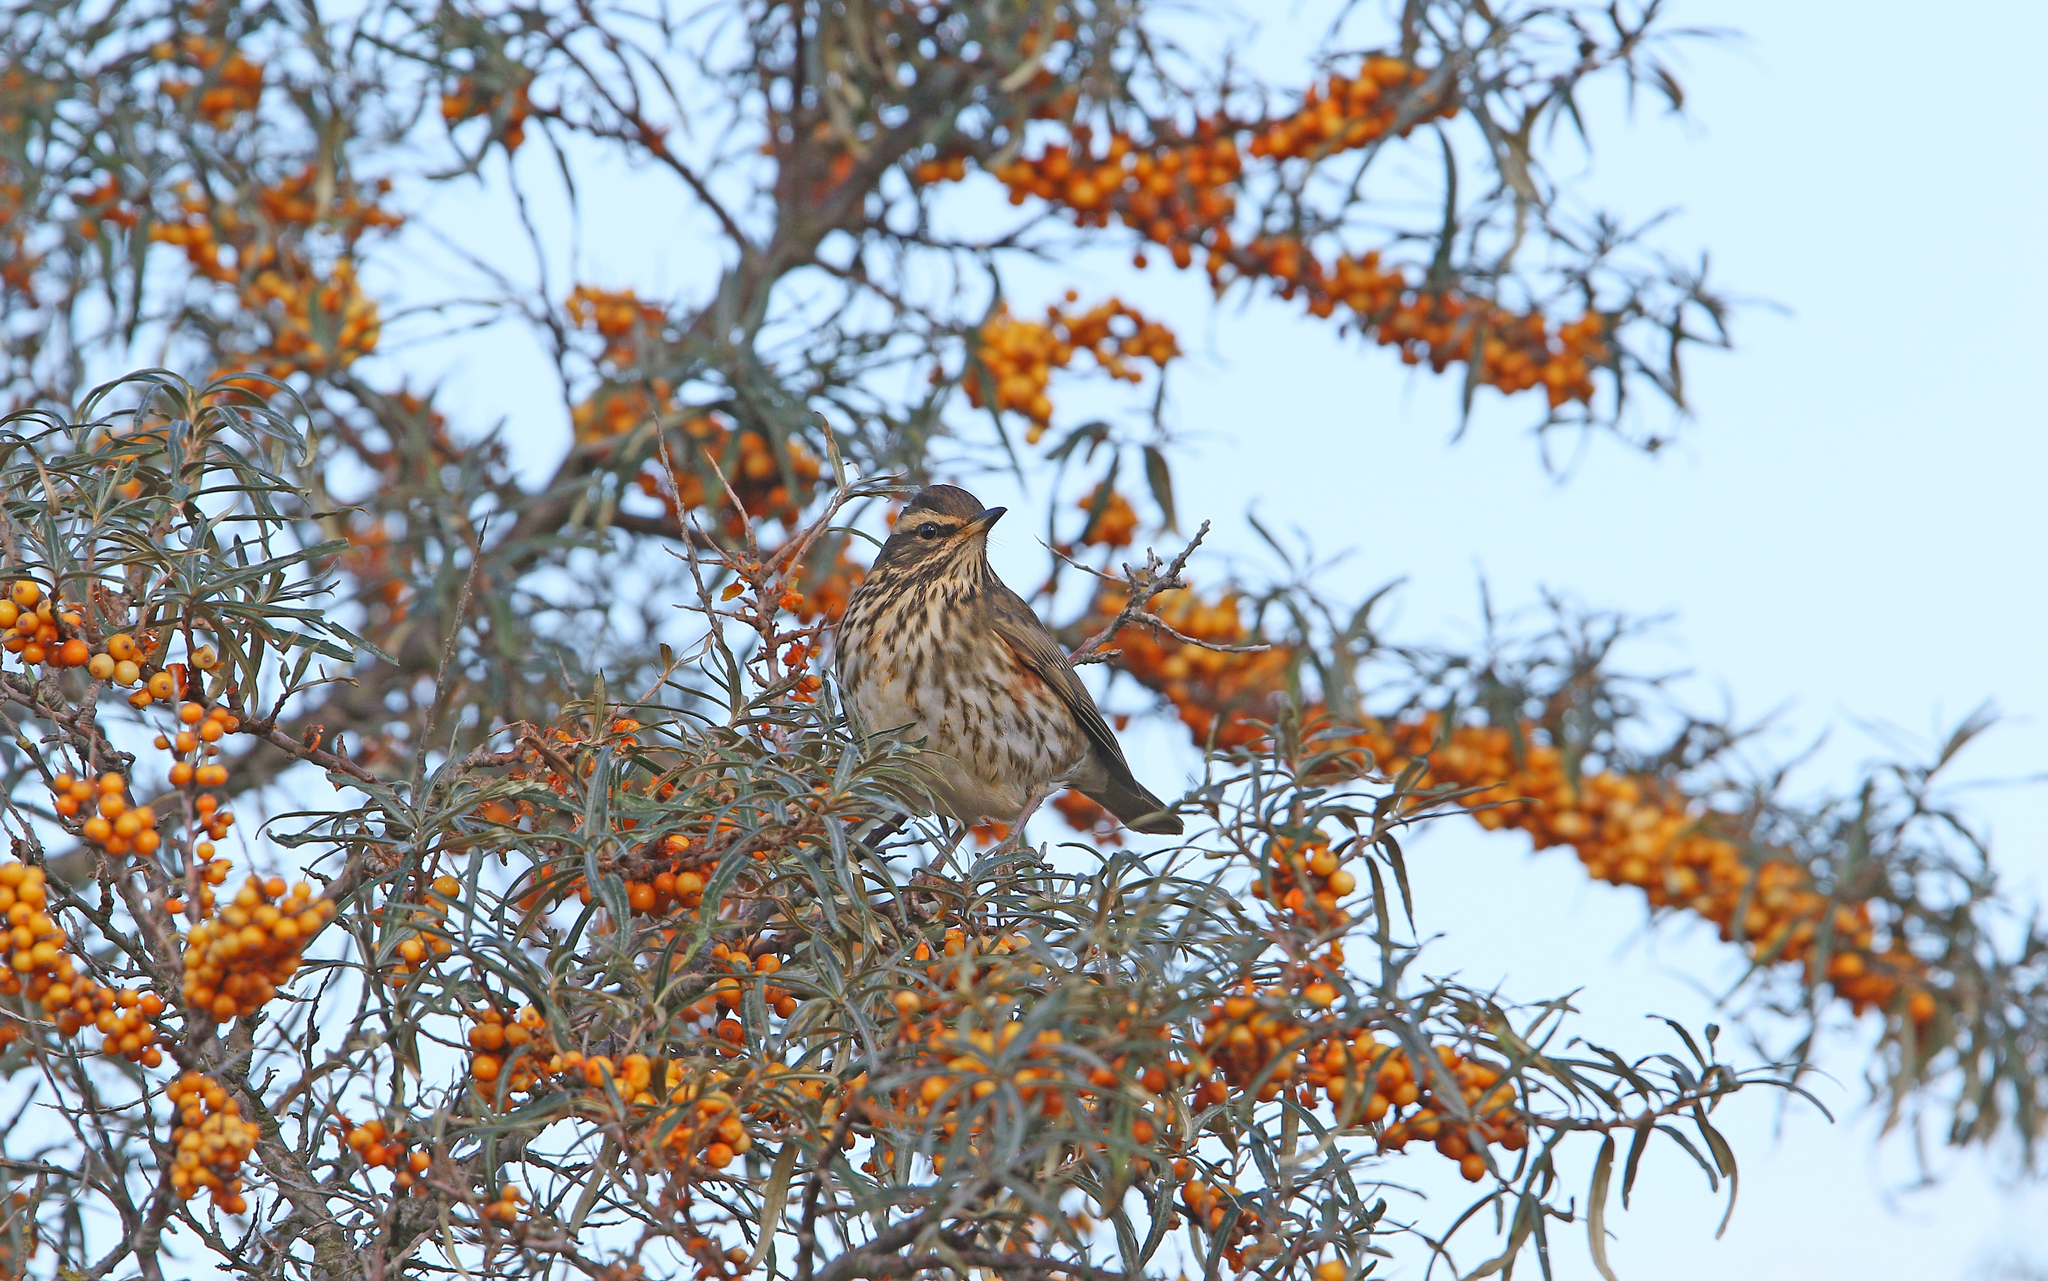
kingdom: Animalia
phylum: Chordata
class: Aves
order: Passeriformes
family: Turdidae
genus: Turdus
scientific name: Turdus iliacus
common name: Redwing
